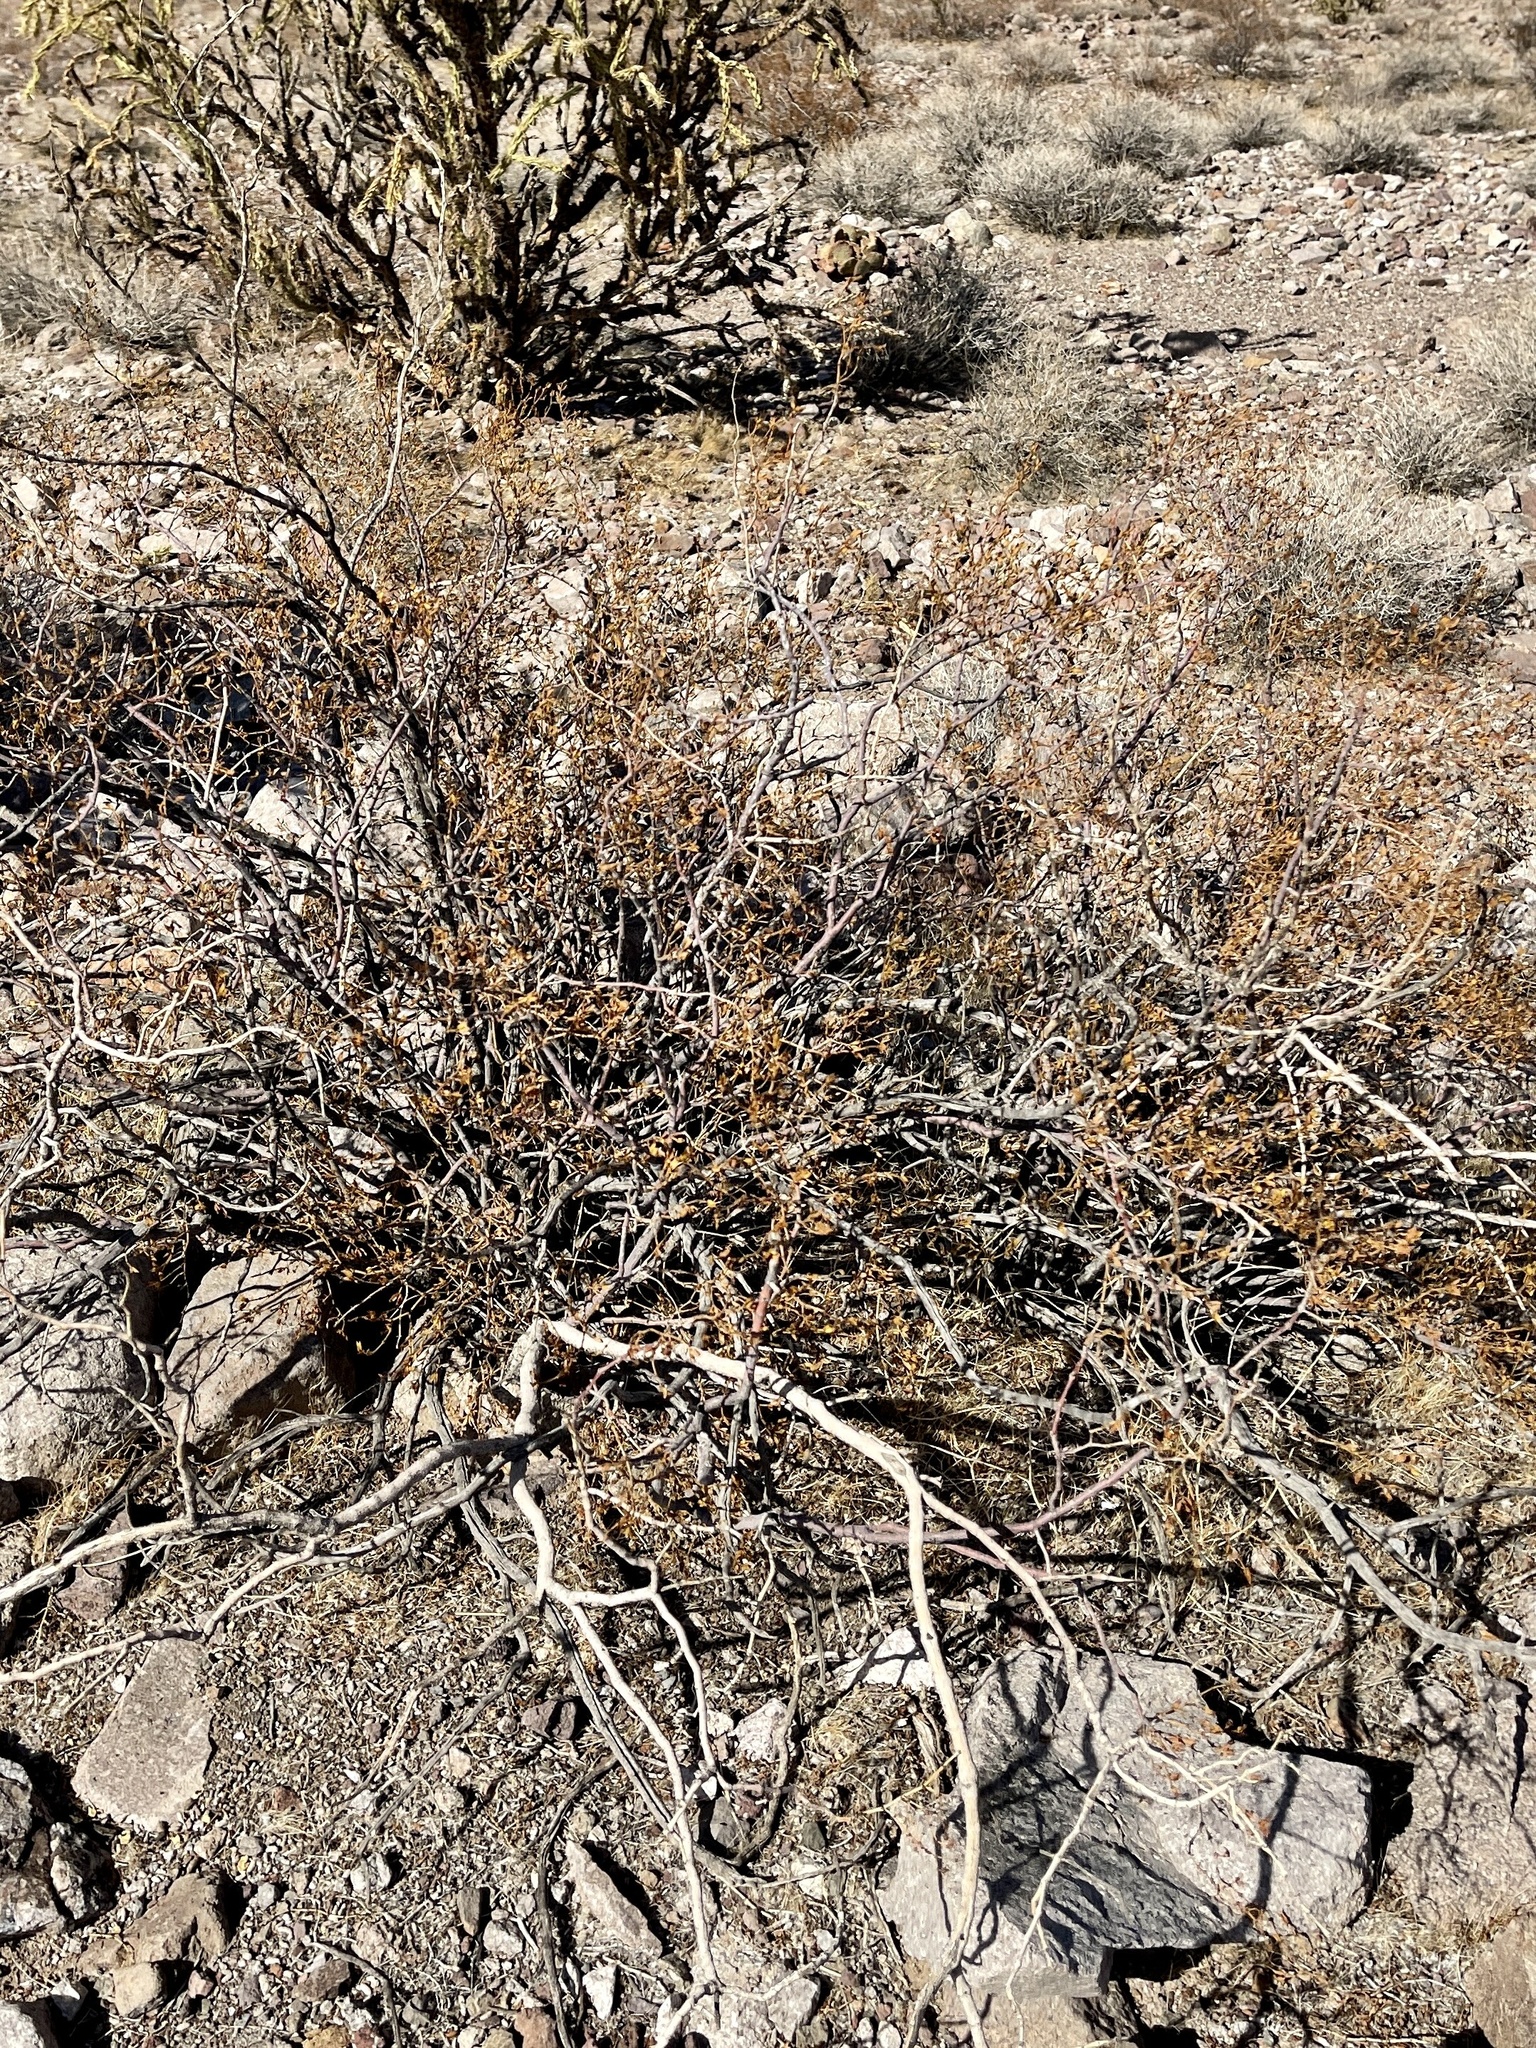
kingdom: Plantae
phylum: Tracheophyta
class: Magnoliopsida
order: Zygophyllales
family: Zygophyllaceae
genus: Larrea
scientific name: Larrea tridentata
